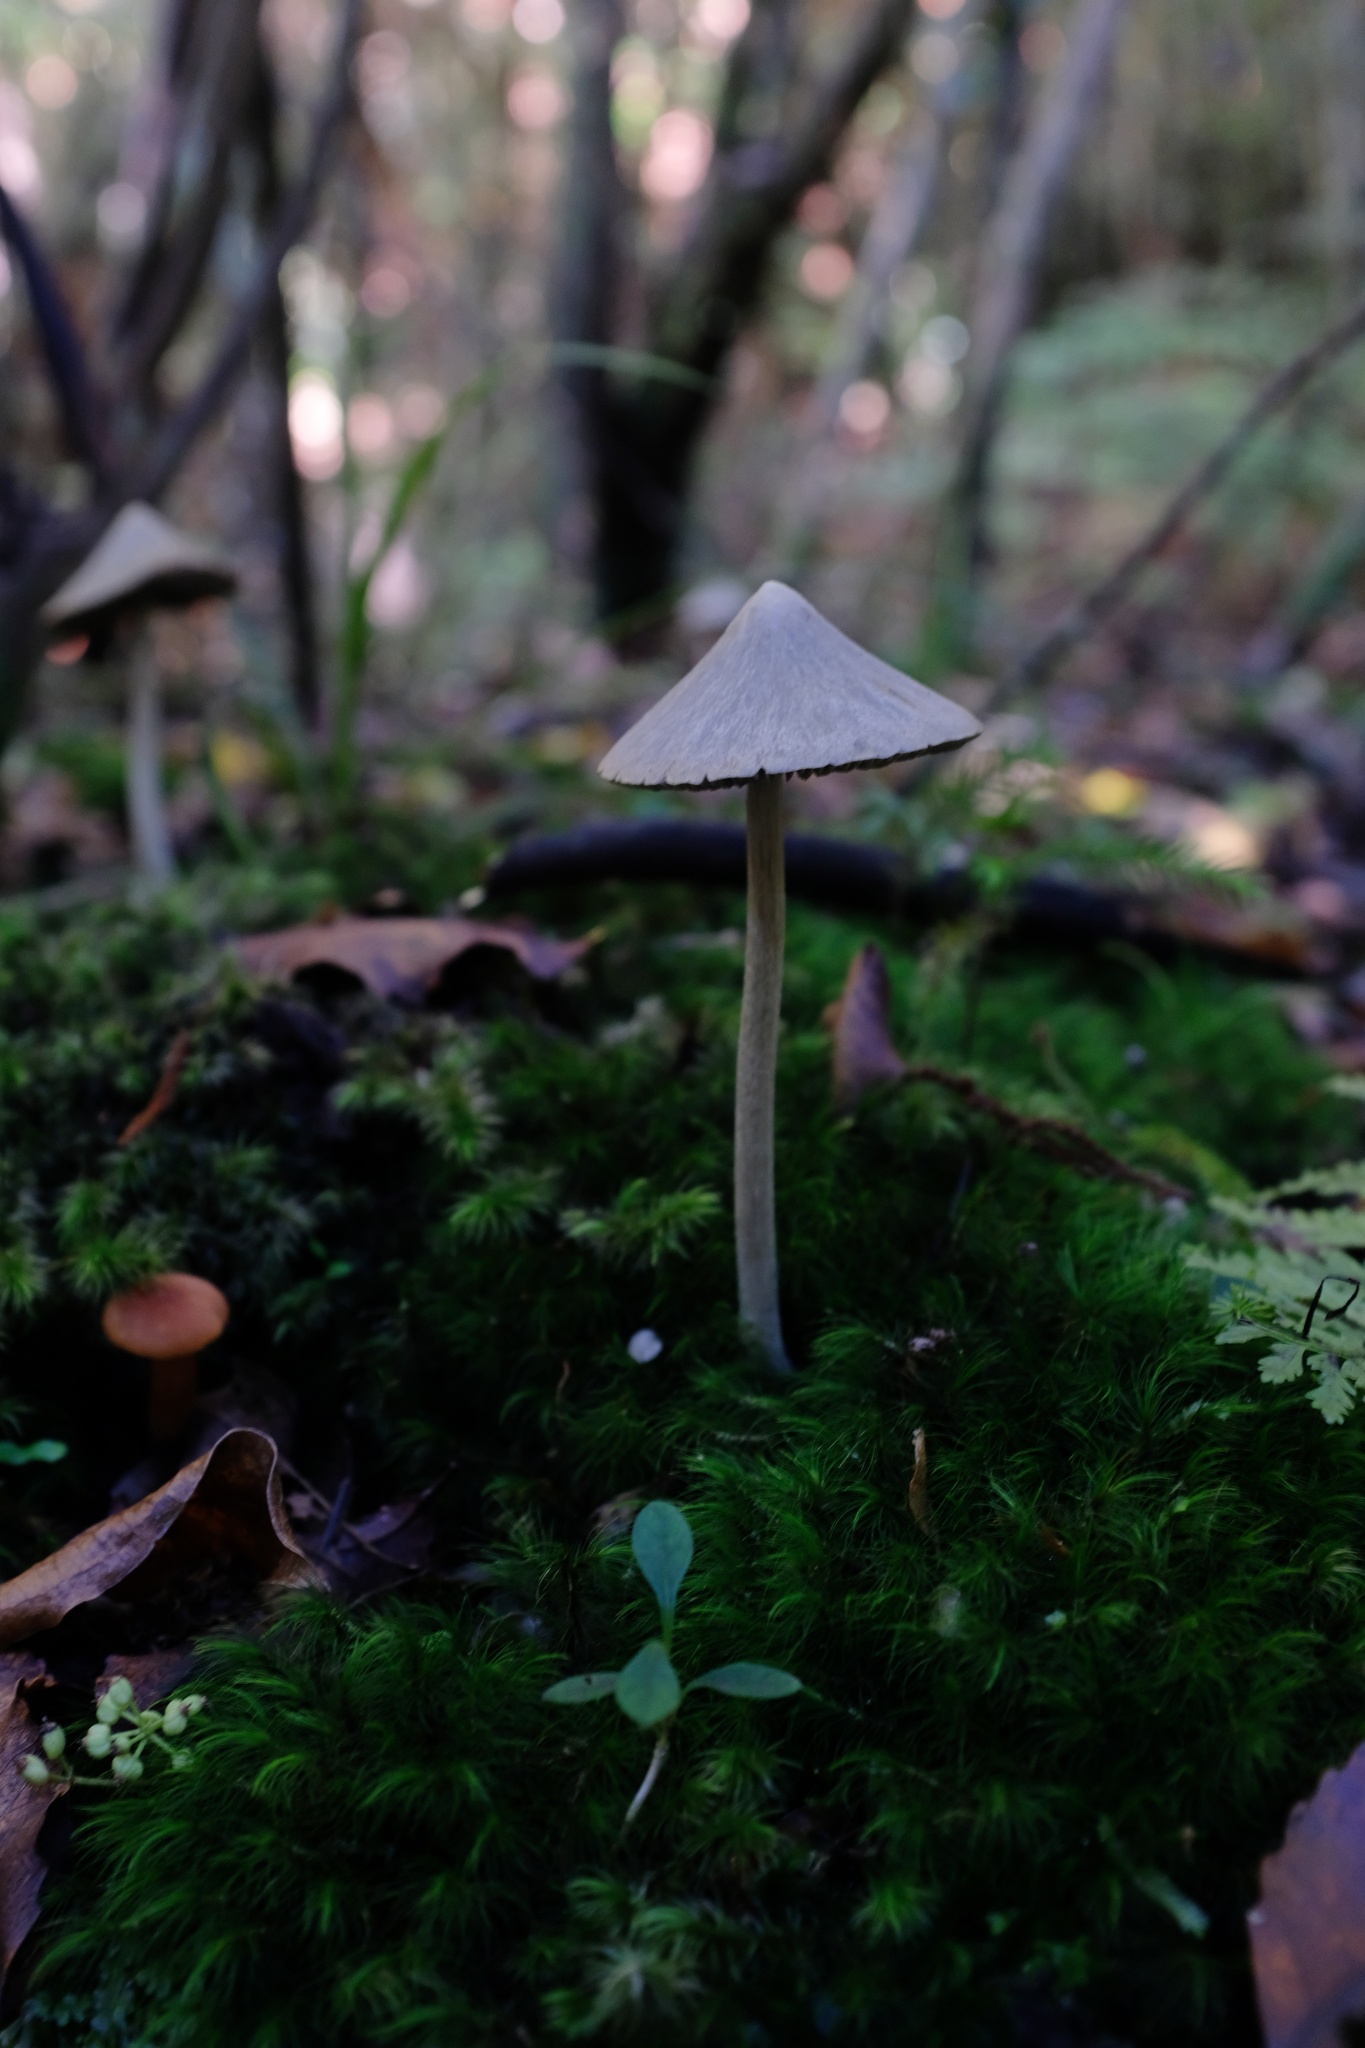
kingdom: Fungi
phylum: Basidiomycota
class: Agaricomycetes
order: Agaricales
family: Entolomataceae
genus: Entoloma
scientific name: Entoloma canoconicum
